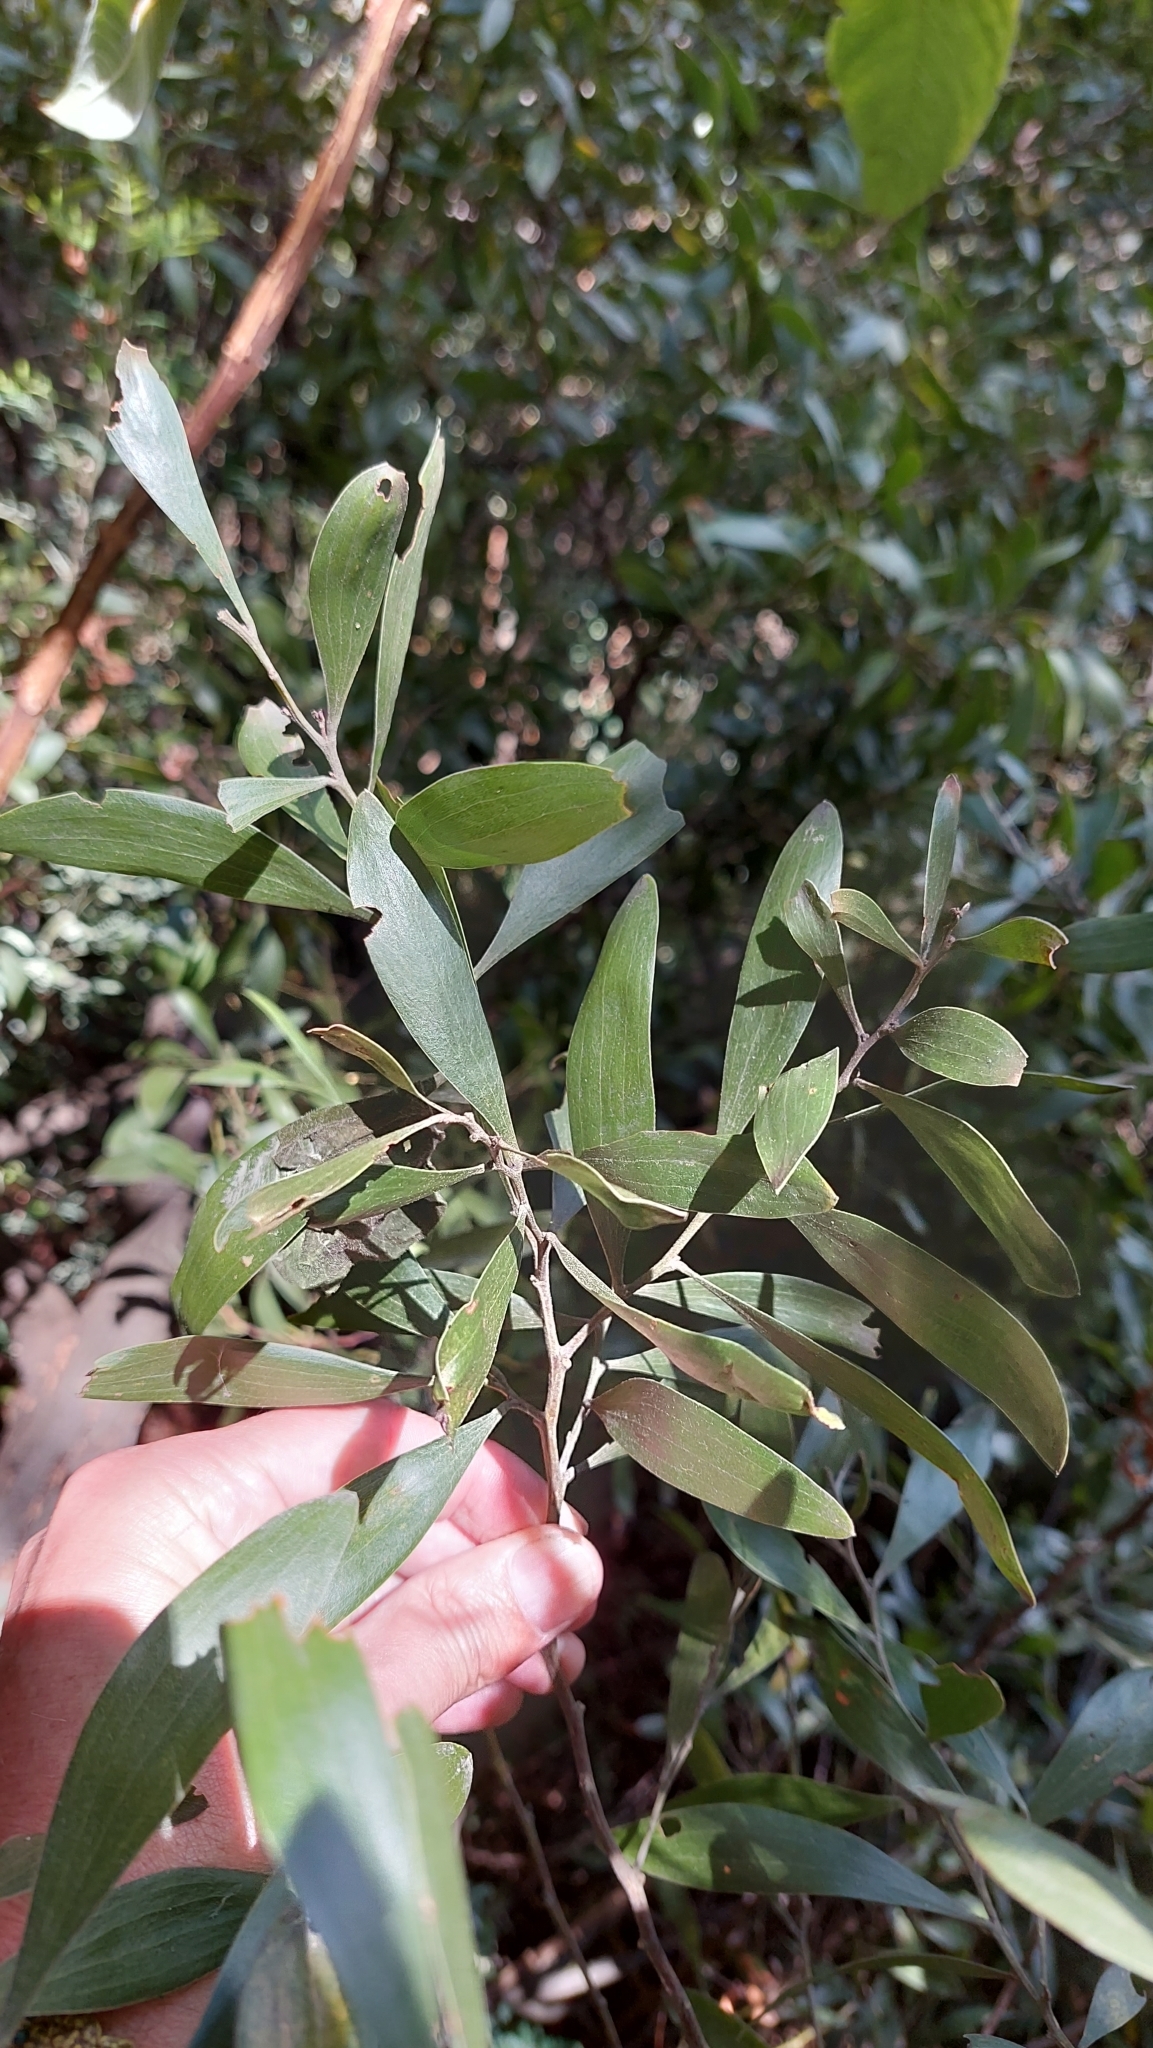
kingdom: Plantae
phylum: Tracheophyta
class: Magnoliopsida
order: Fabales
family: Fabaceae
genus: Acacia
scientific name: Acacia melanoxylon
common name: Blackwood
